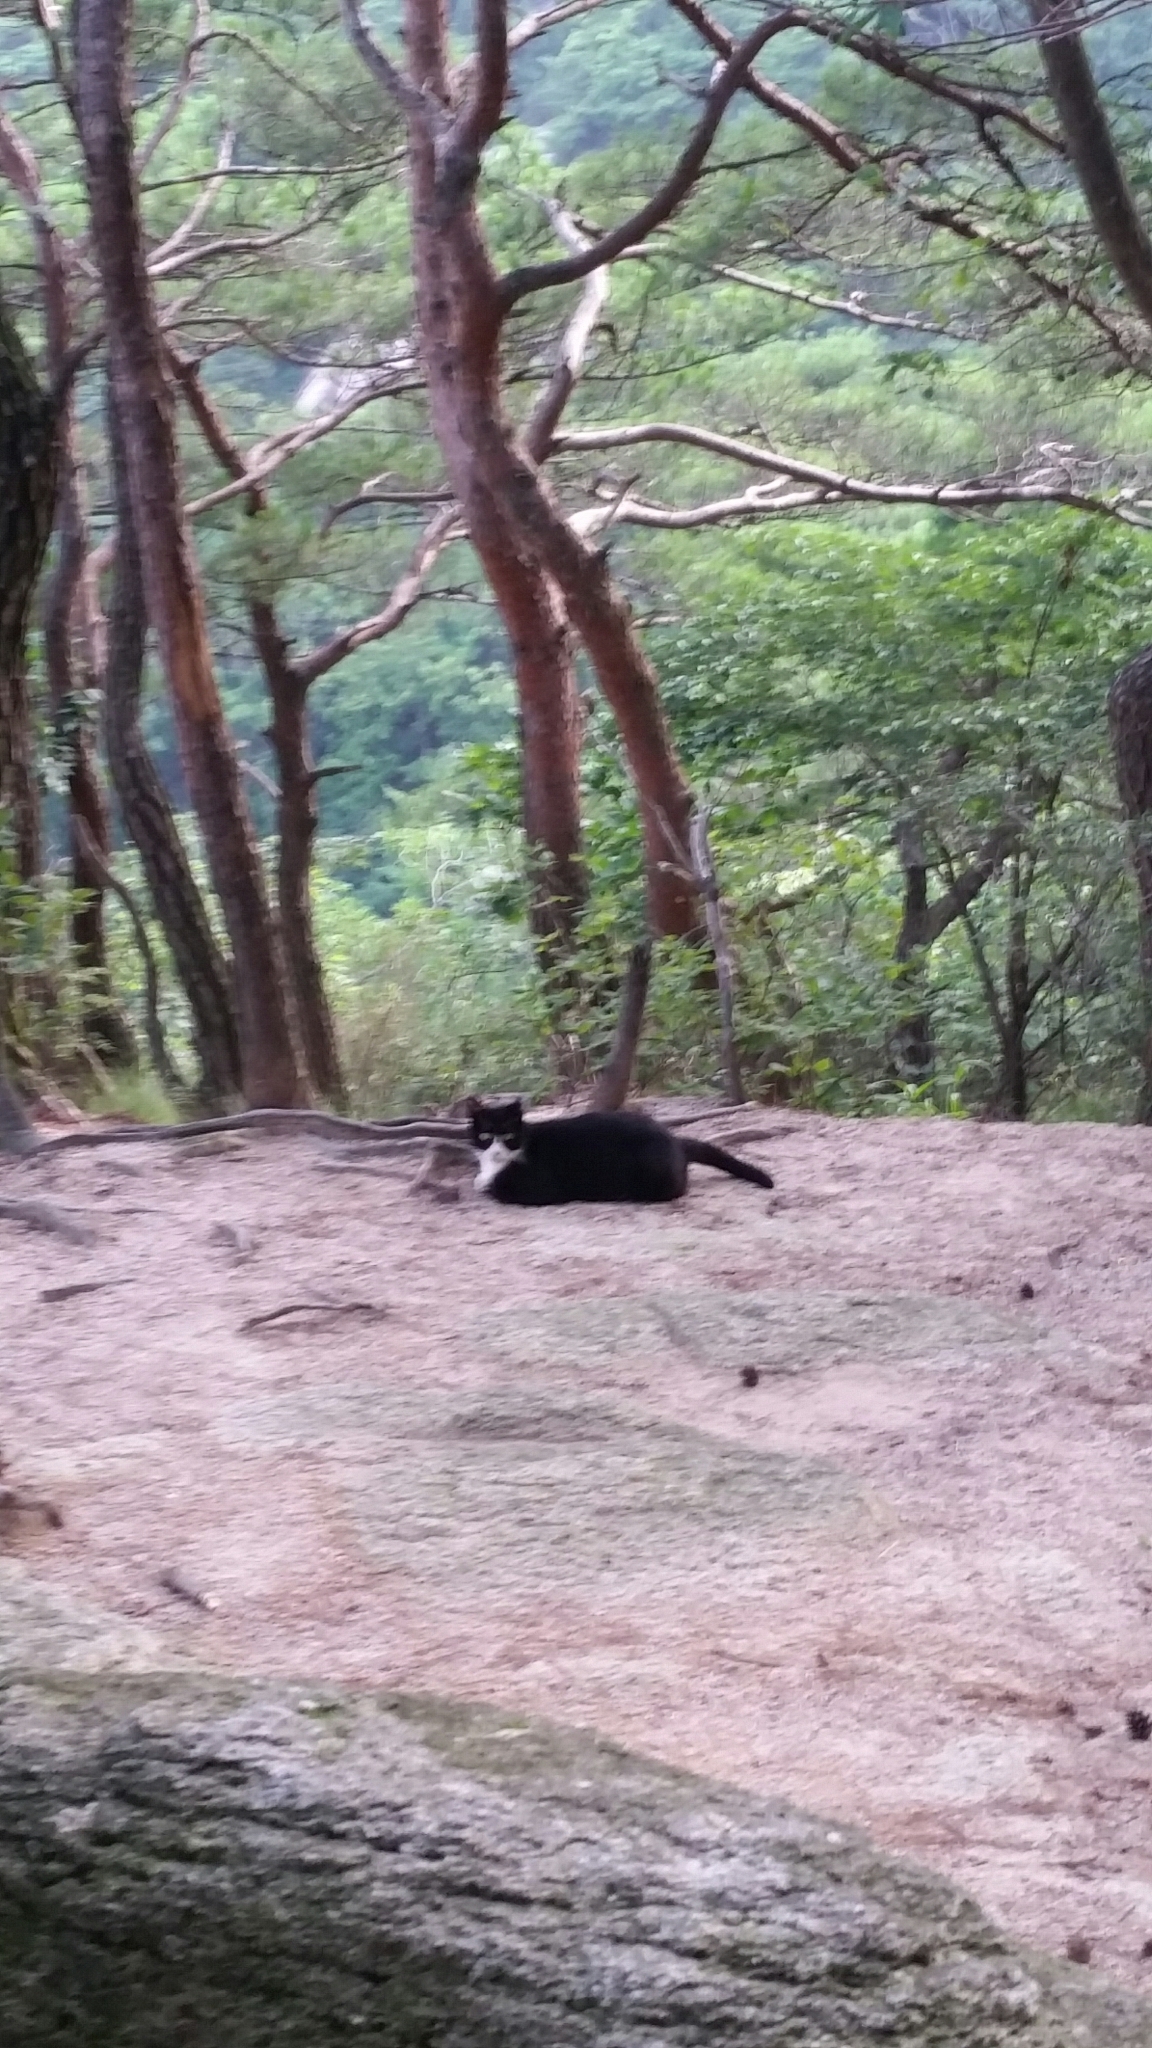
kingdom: Animalia
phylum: Chordata
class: Mammalia
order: Carnivora
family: Felidae
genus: Felis
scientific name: Felis catus
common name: Domestic cat
